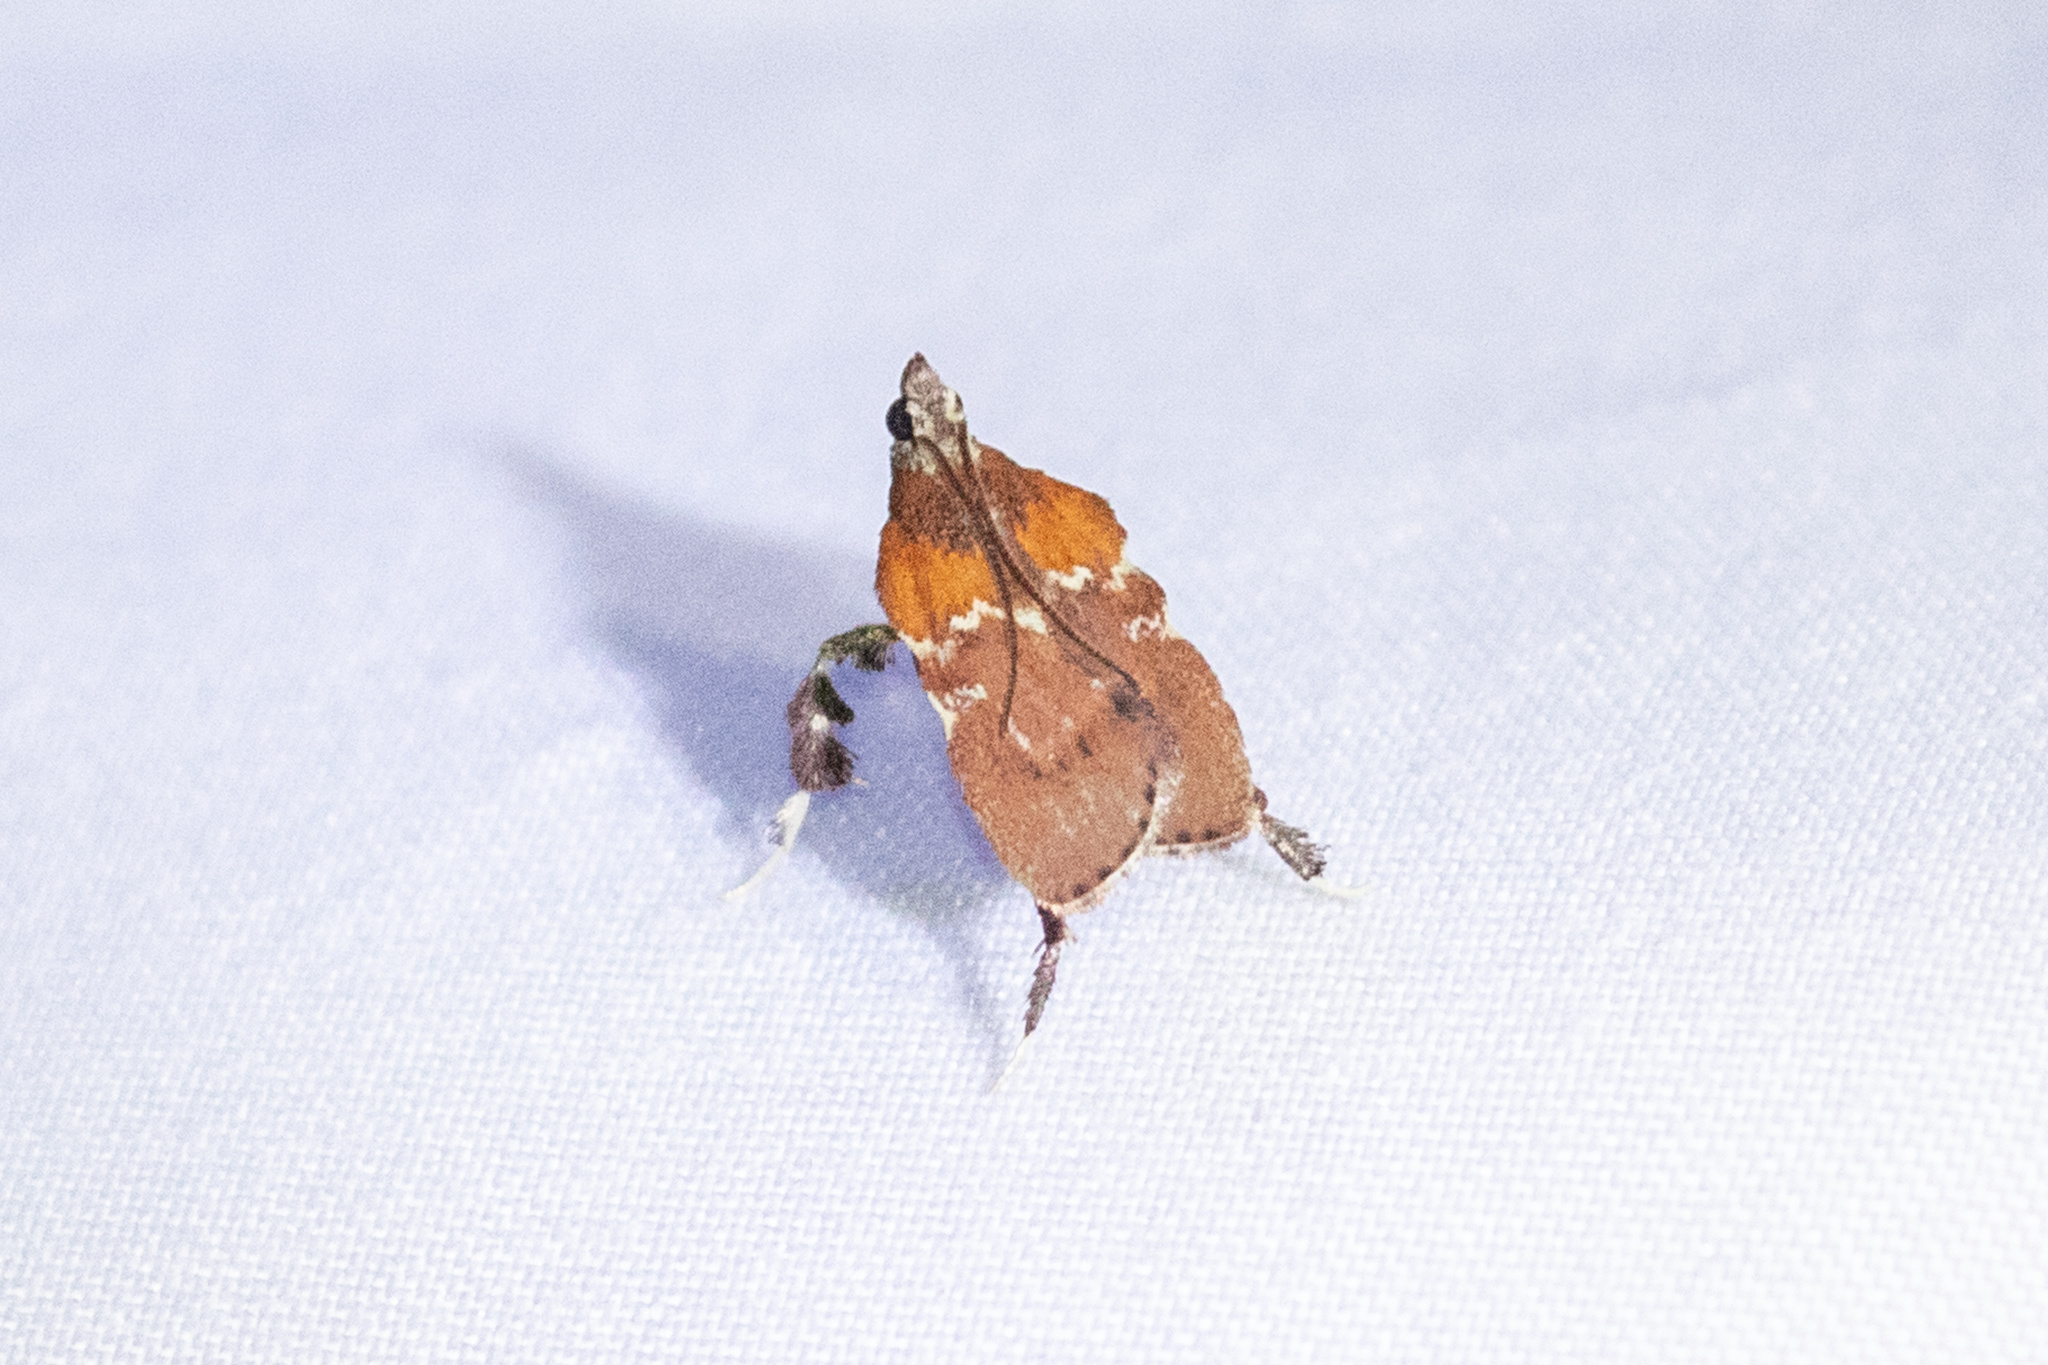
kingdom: Animalia
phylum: Arthropoda
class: Insecta
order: Lepidoptera
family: Pyralidae
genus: Galasa
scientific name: Galasa nigrinodis
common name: Boxwood leaftier moth
